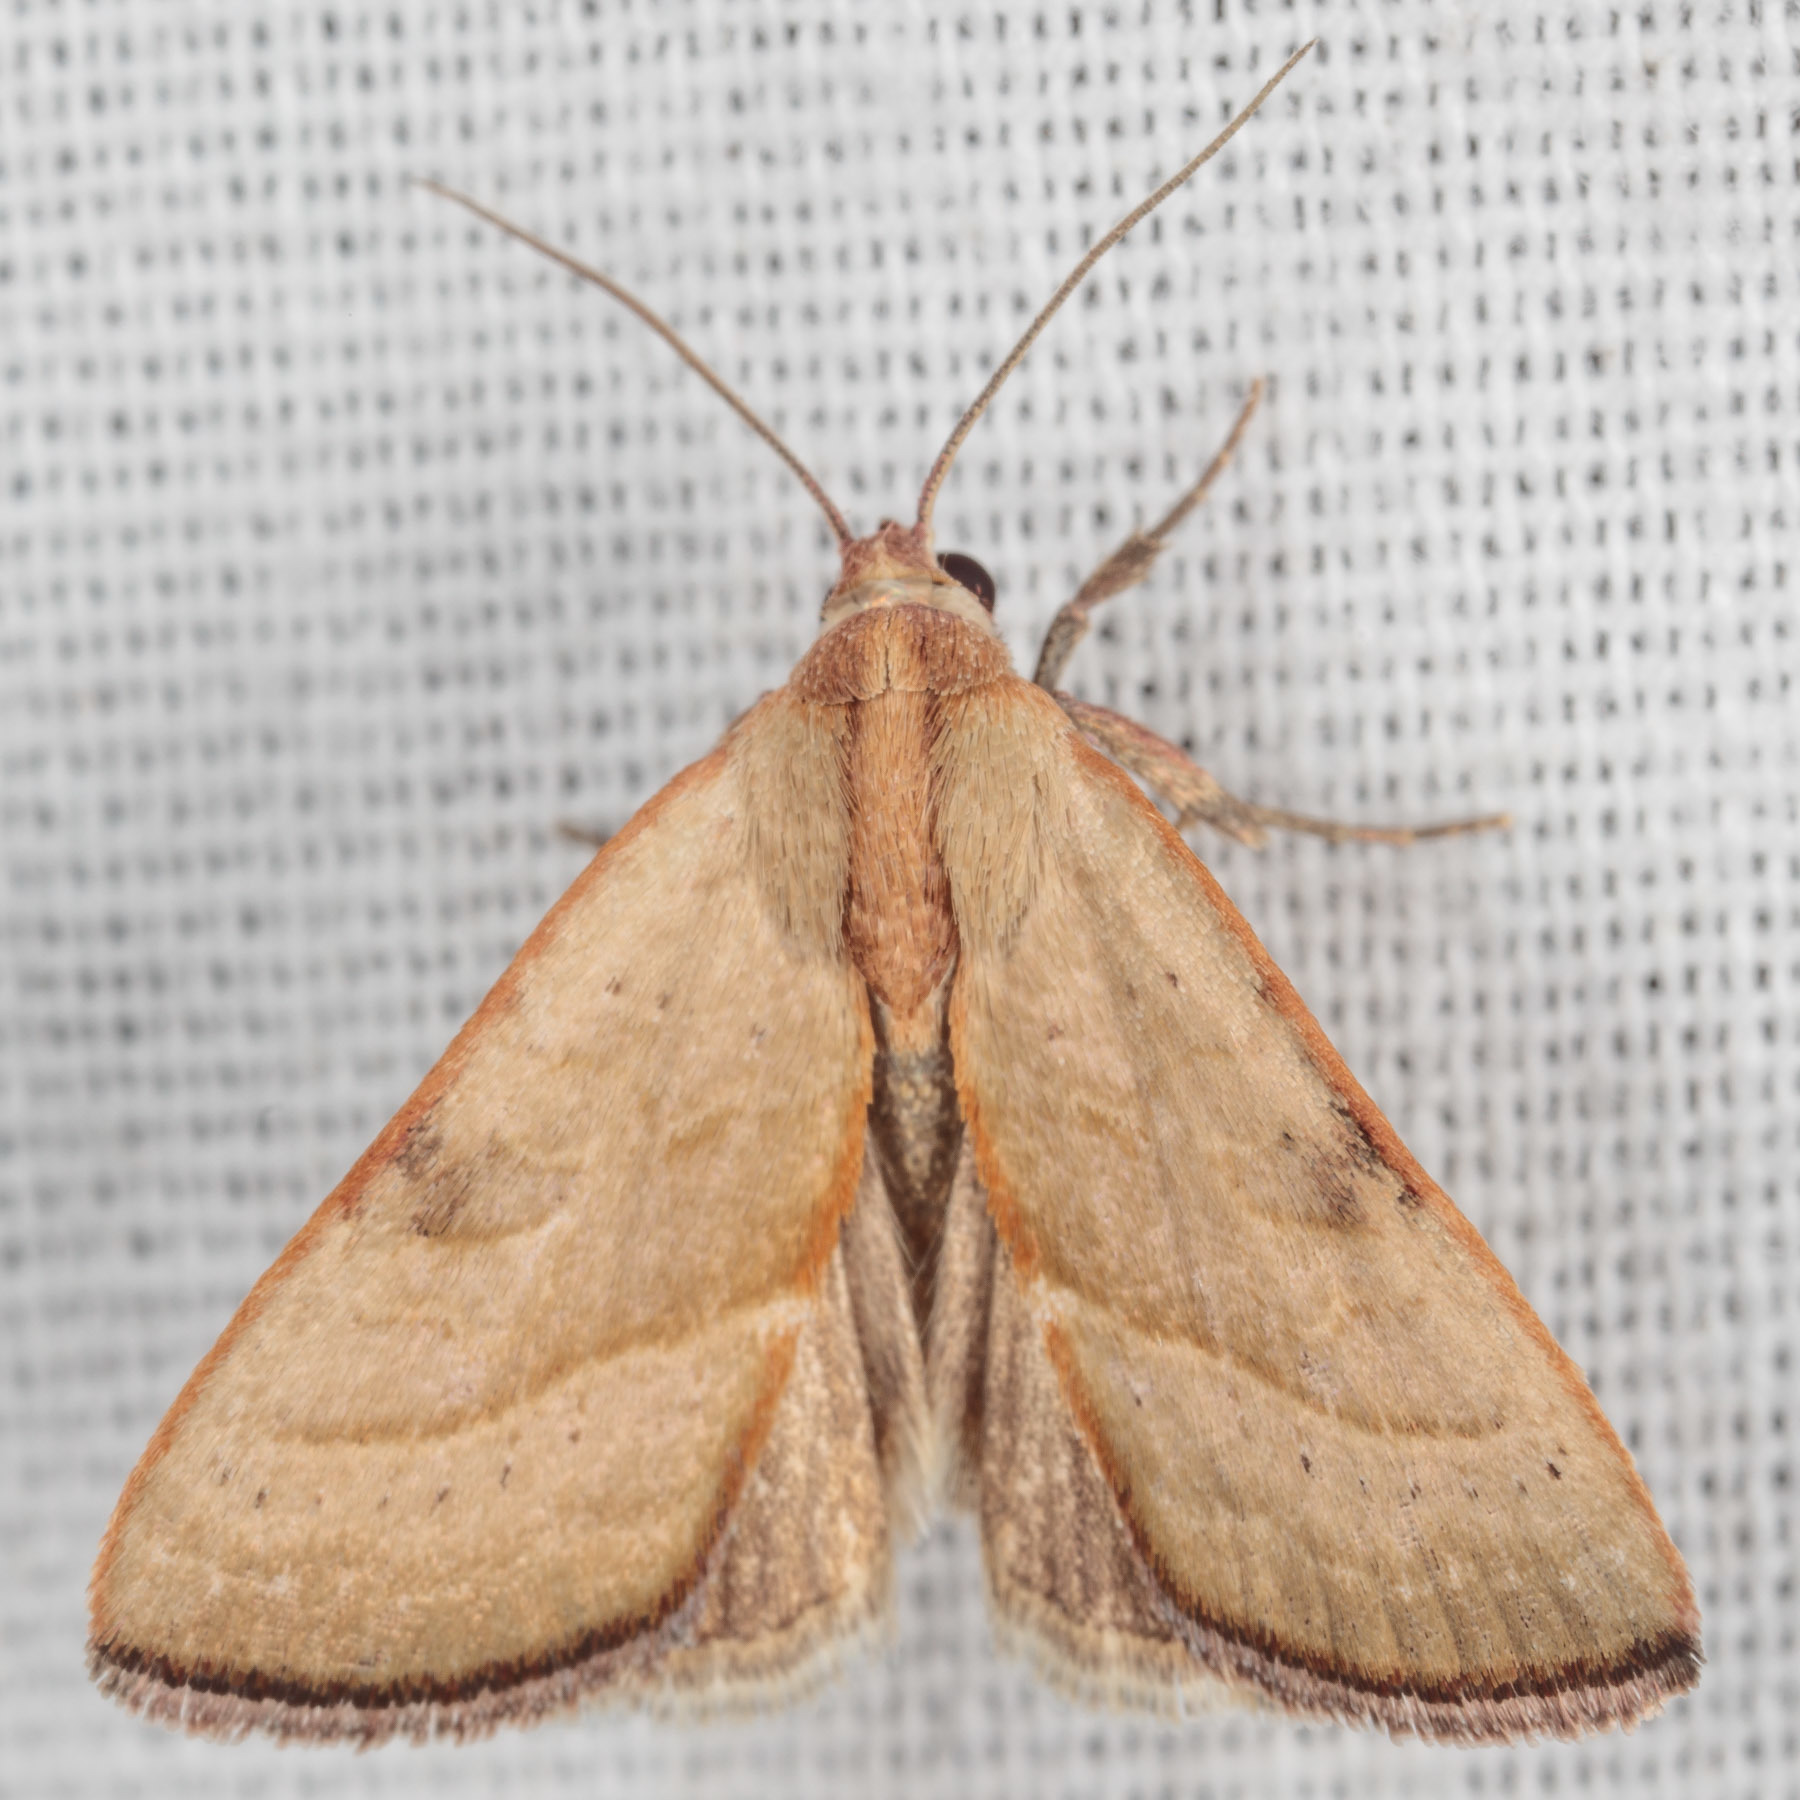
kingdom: Animalia
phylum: Arthropoda
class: Insecta
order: Lepidoptera
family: Noctuidae
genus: Galgula
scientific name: Galgula partita
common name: Wedgeling
